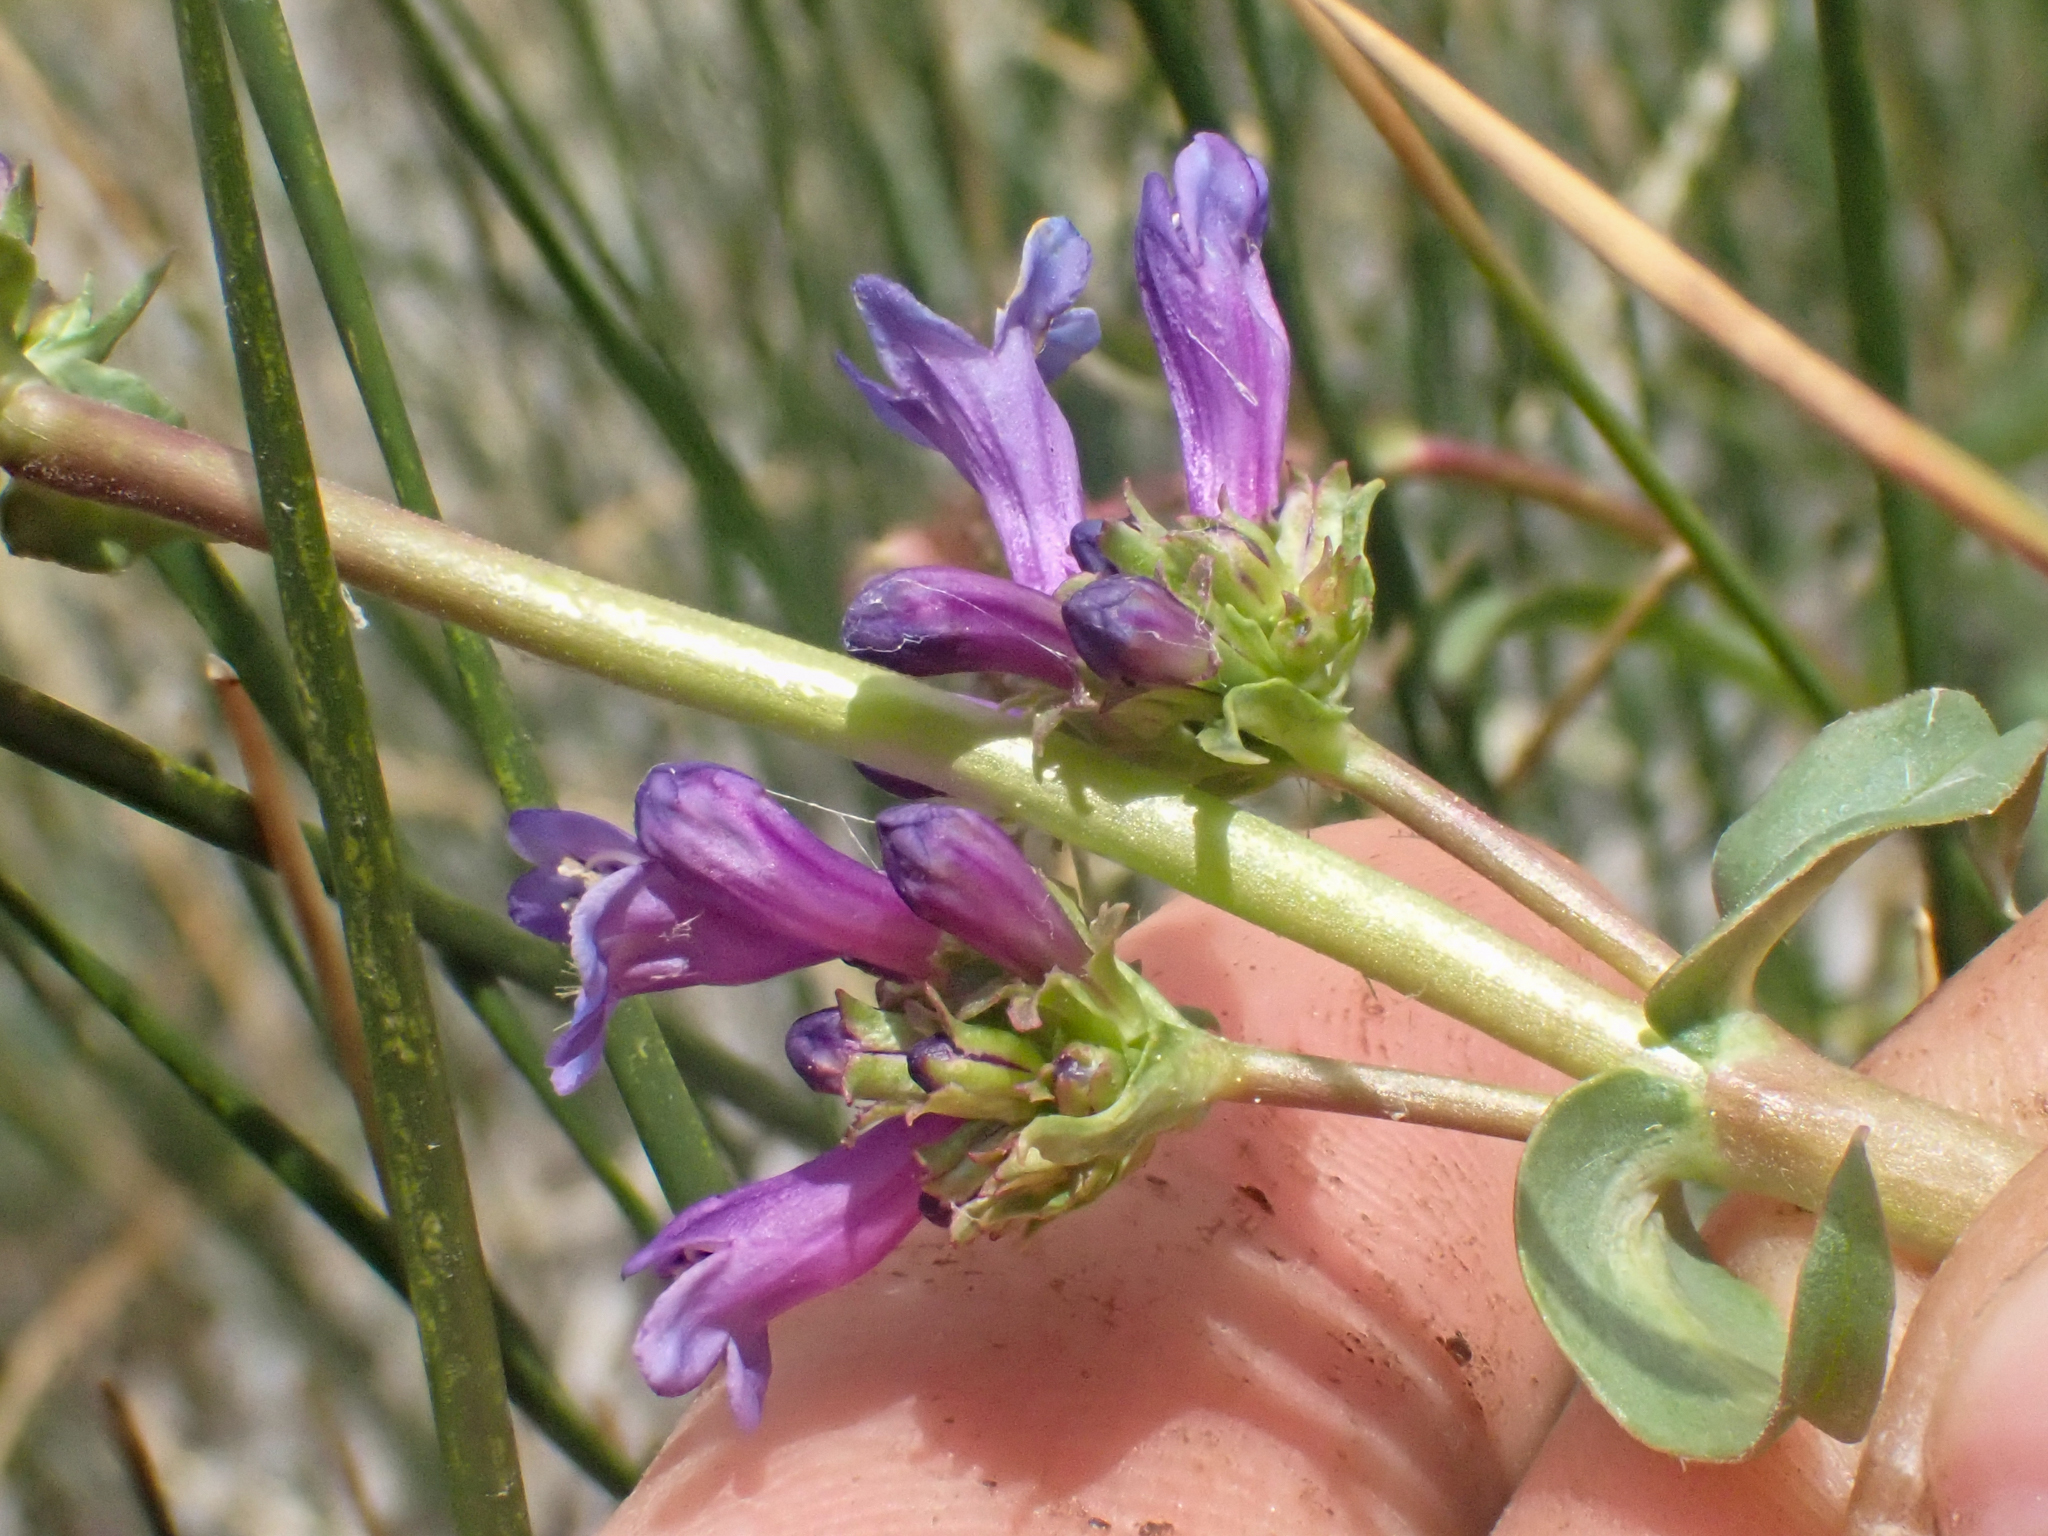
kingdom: Plantae
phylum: Tracheophyta
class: Magnoliopsida
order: Lamiales
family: Plantaginaceae
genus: Penstemon
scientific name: Penstemon rydbergii
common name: Rydberg's beardtongue
